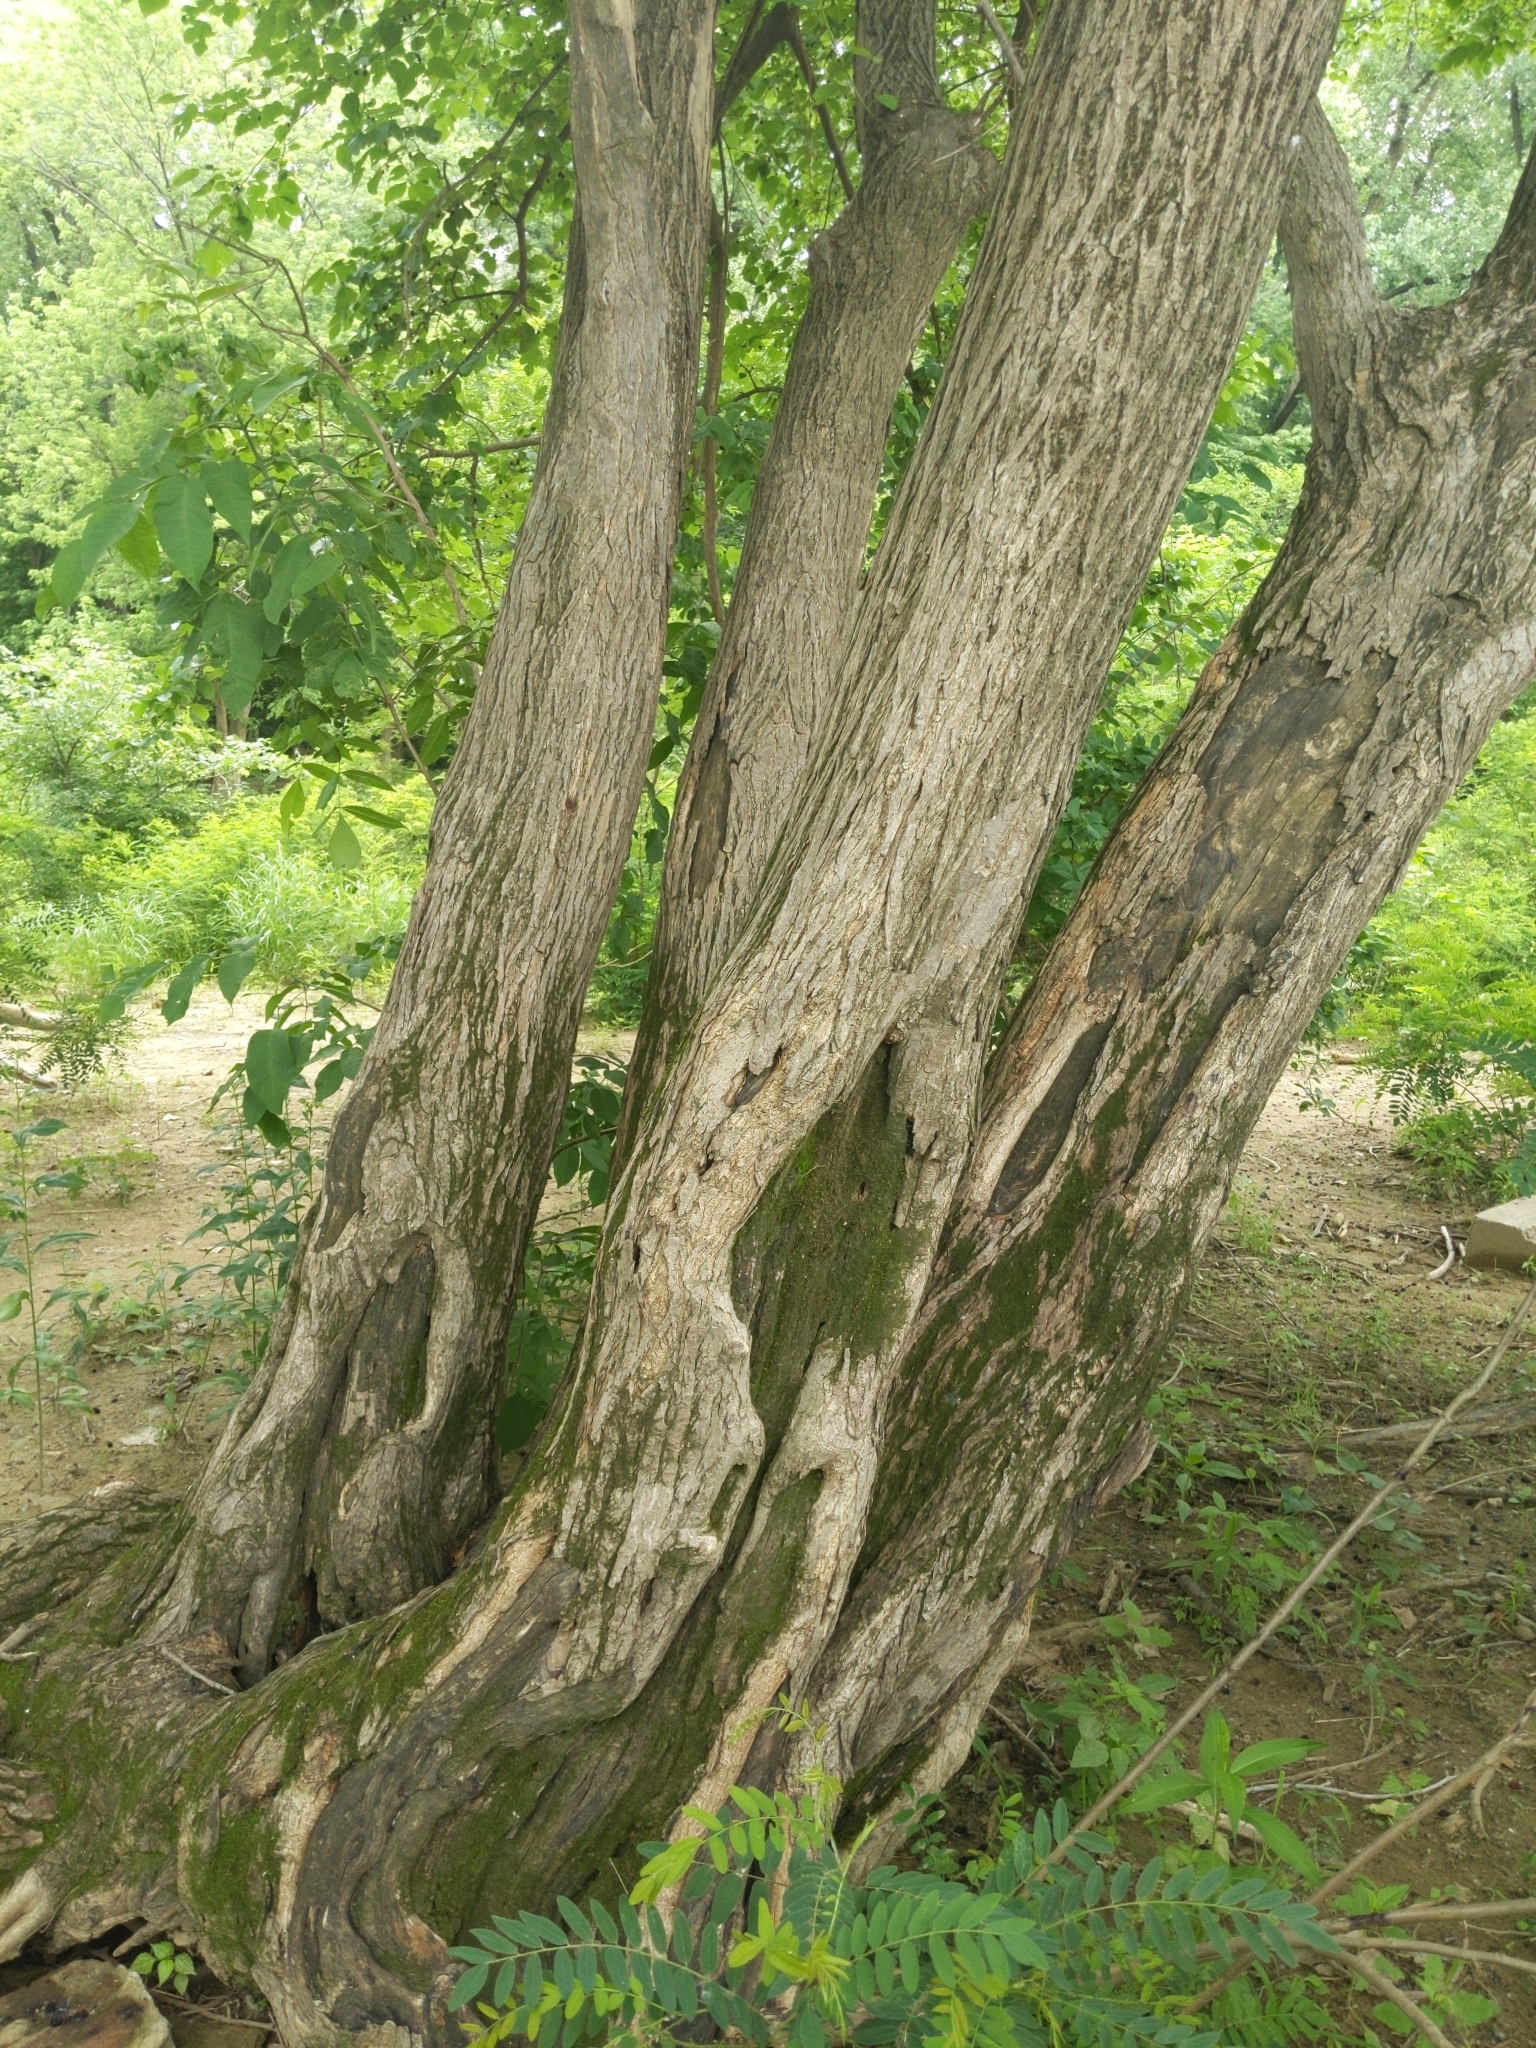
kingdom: Plantae
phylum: Tracheophyta
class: Magnoliopsida
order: Rosales
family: Moraceae
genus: Morus
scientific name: Morus alba
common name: White mulberry
